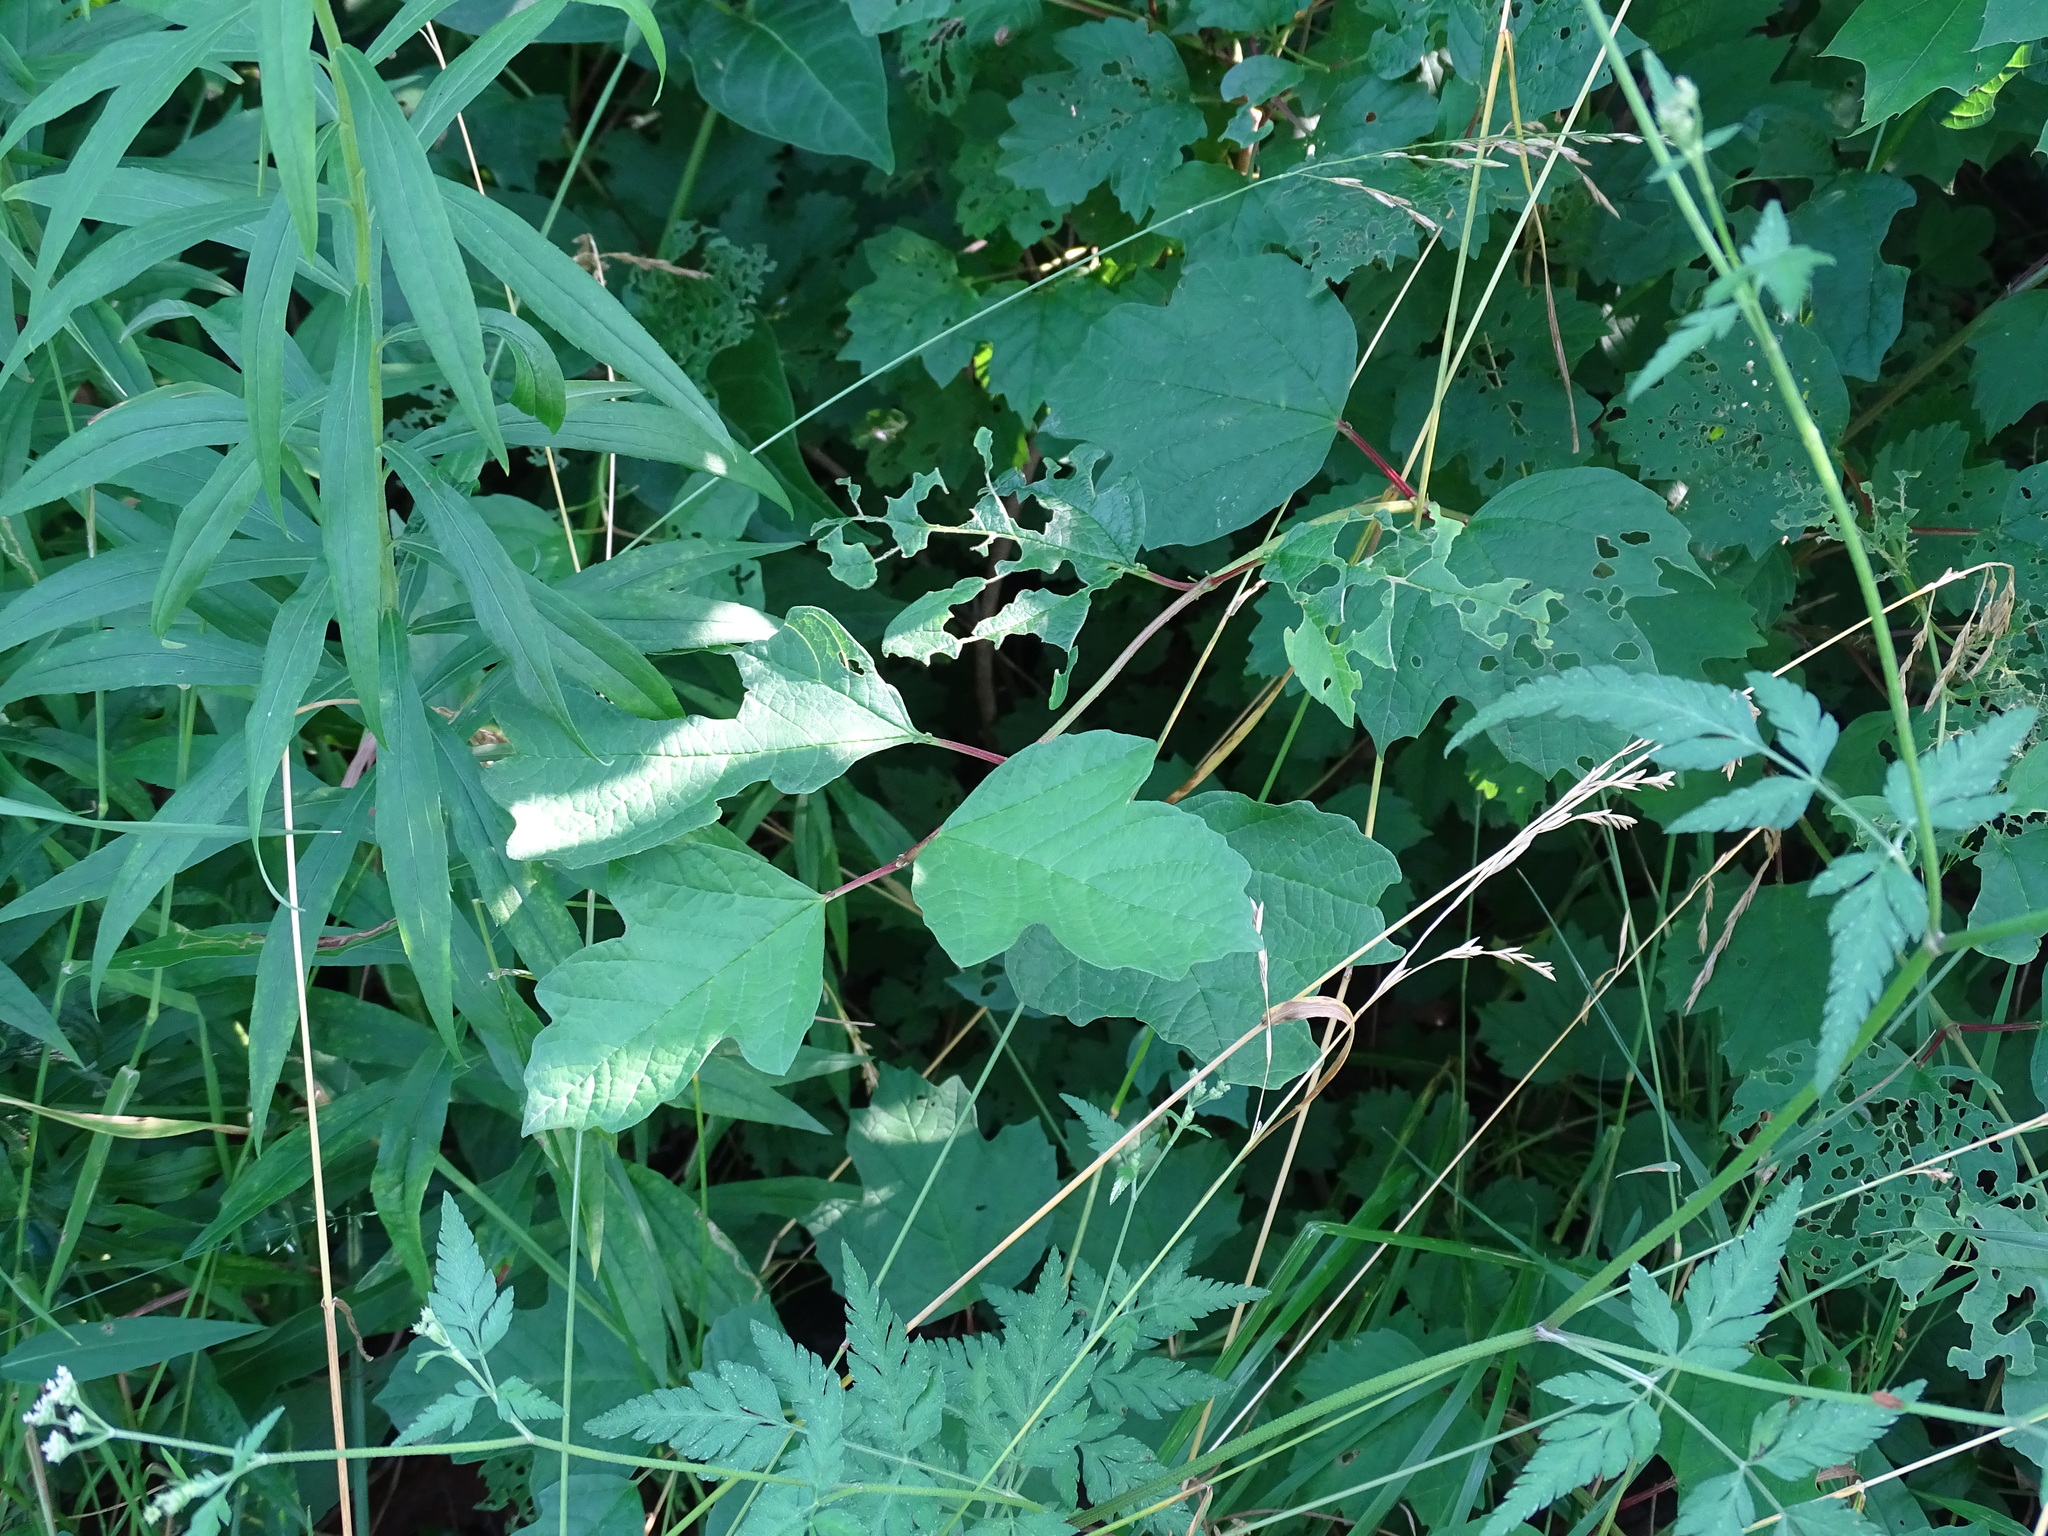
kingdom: Plantae
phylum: Tracheophyta
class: Magnoliopsida
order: Dipsacales
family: Viburnaceae
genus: Viburnum
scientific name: Viburnum opulus
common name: Guelder-rose
